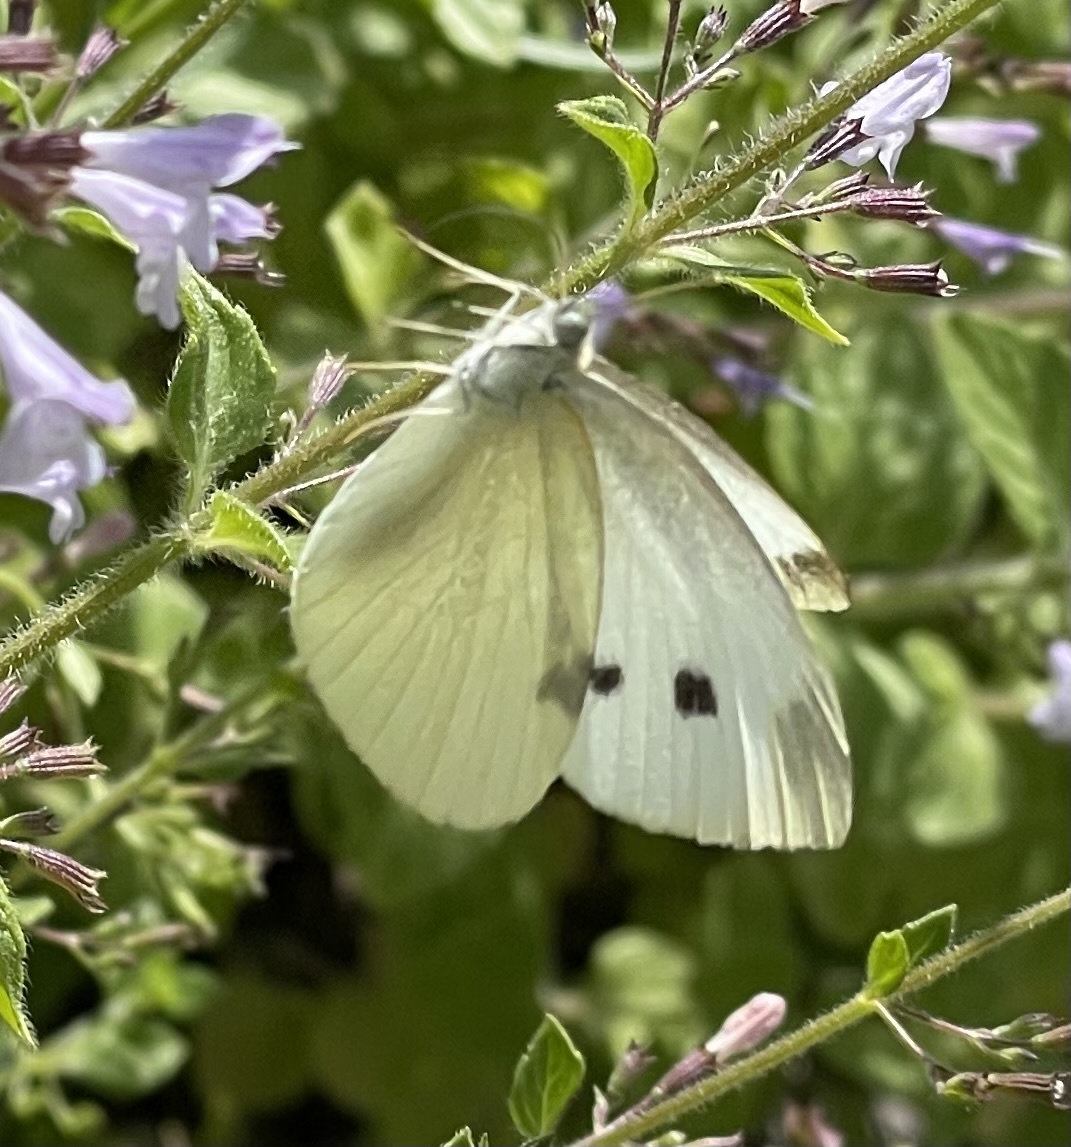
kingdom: Animalia
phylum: Arthropoda
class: Insecta
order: Lepidoptera
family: Pieridae
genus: Pieris
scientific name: Pieris rapae
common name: Small white
